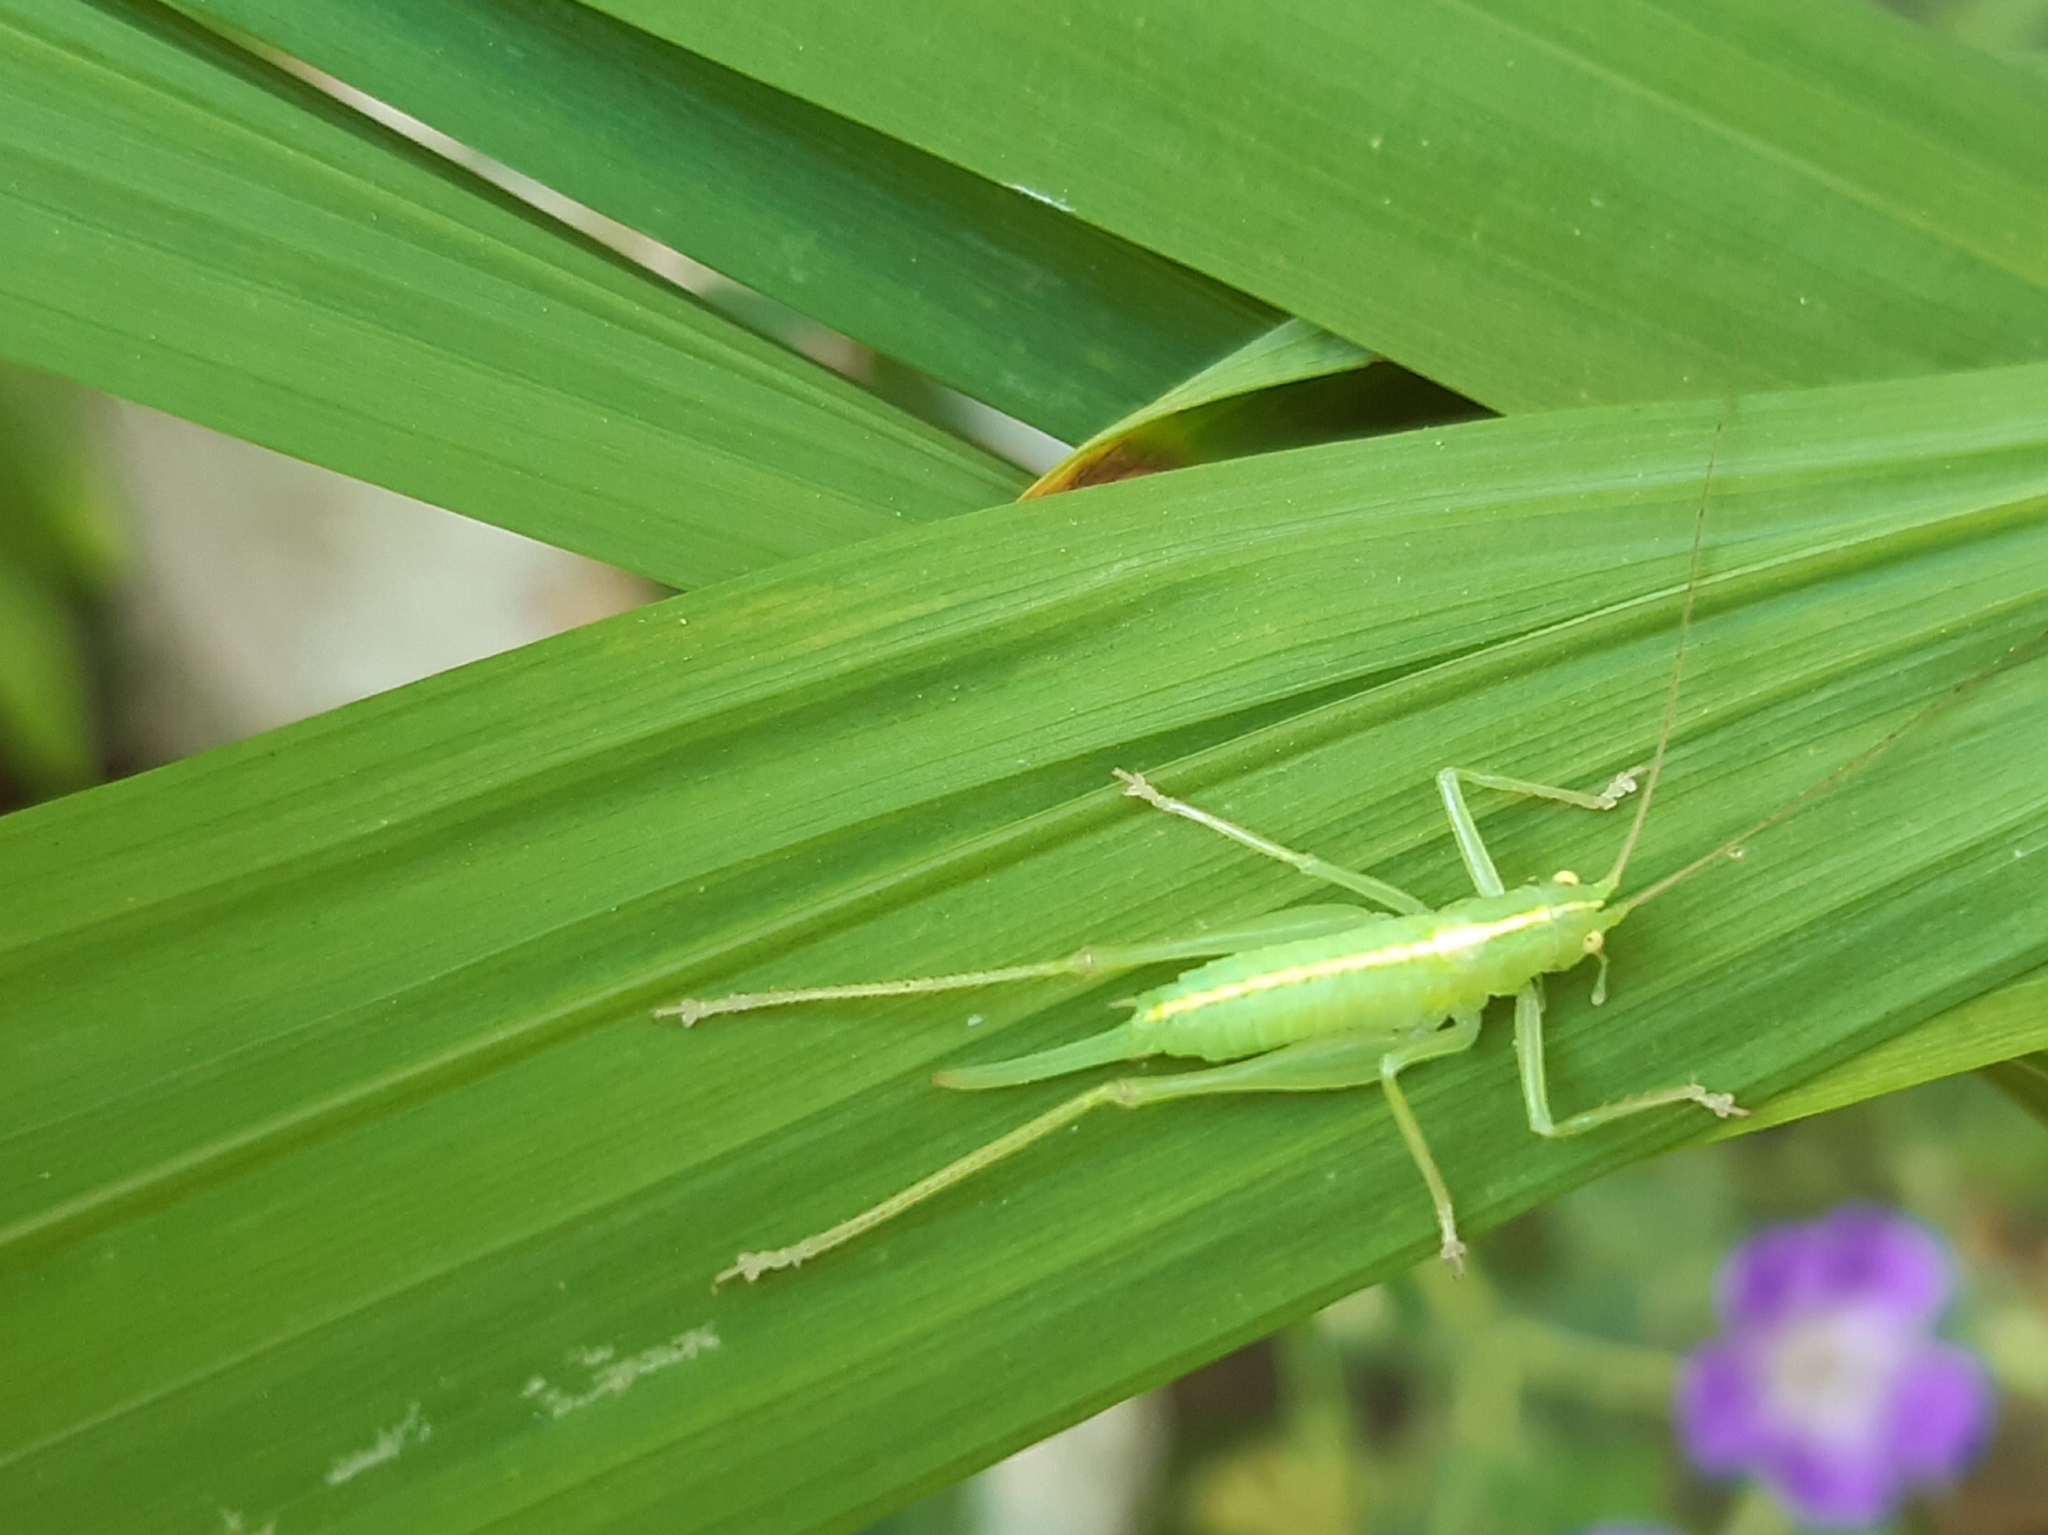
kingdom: Animalia
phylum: Arthropoda
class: Insecta
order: Orthoptera
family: Tettigoniidae
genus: Meconema
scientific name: Meconema meridionale
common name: Southern oak bush-cricket
